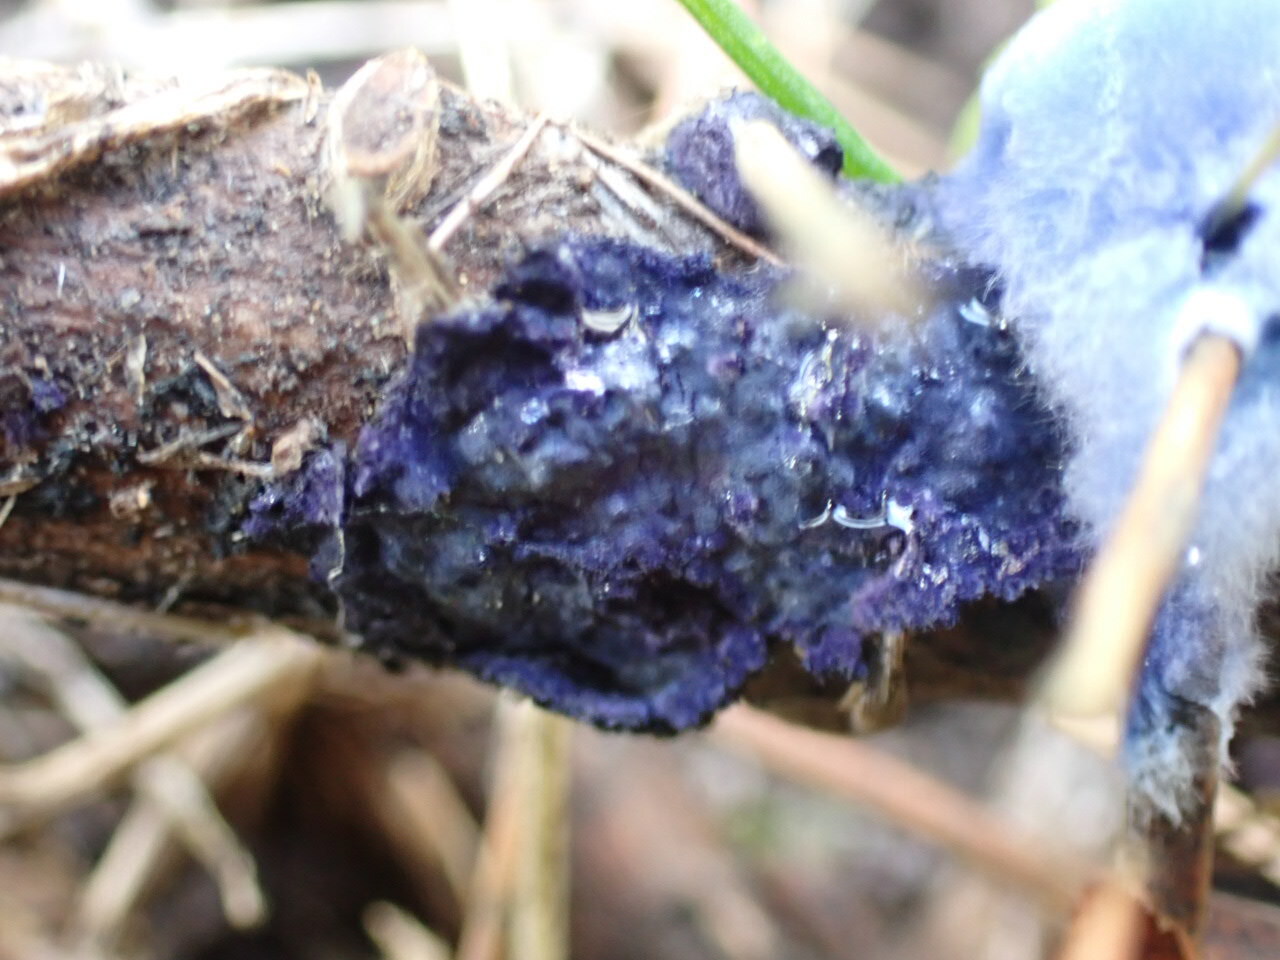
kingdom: Fungi
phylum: Basidiomycota
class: Agaricomycetes
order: Polyporales
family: Phanerochaetaceae
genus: Terana
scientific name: Terana coerulea
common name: Cobalt crust
